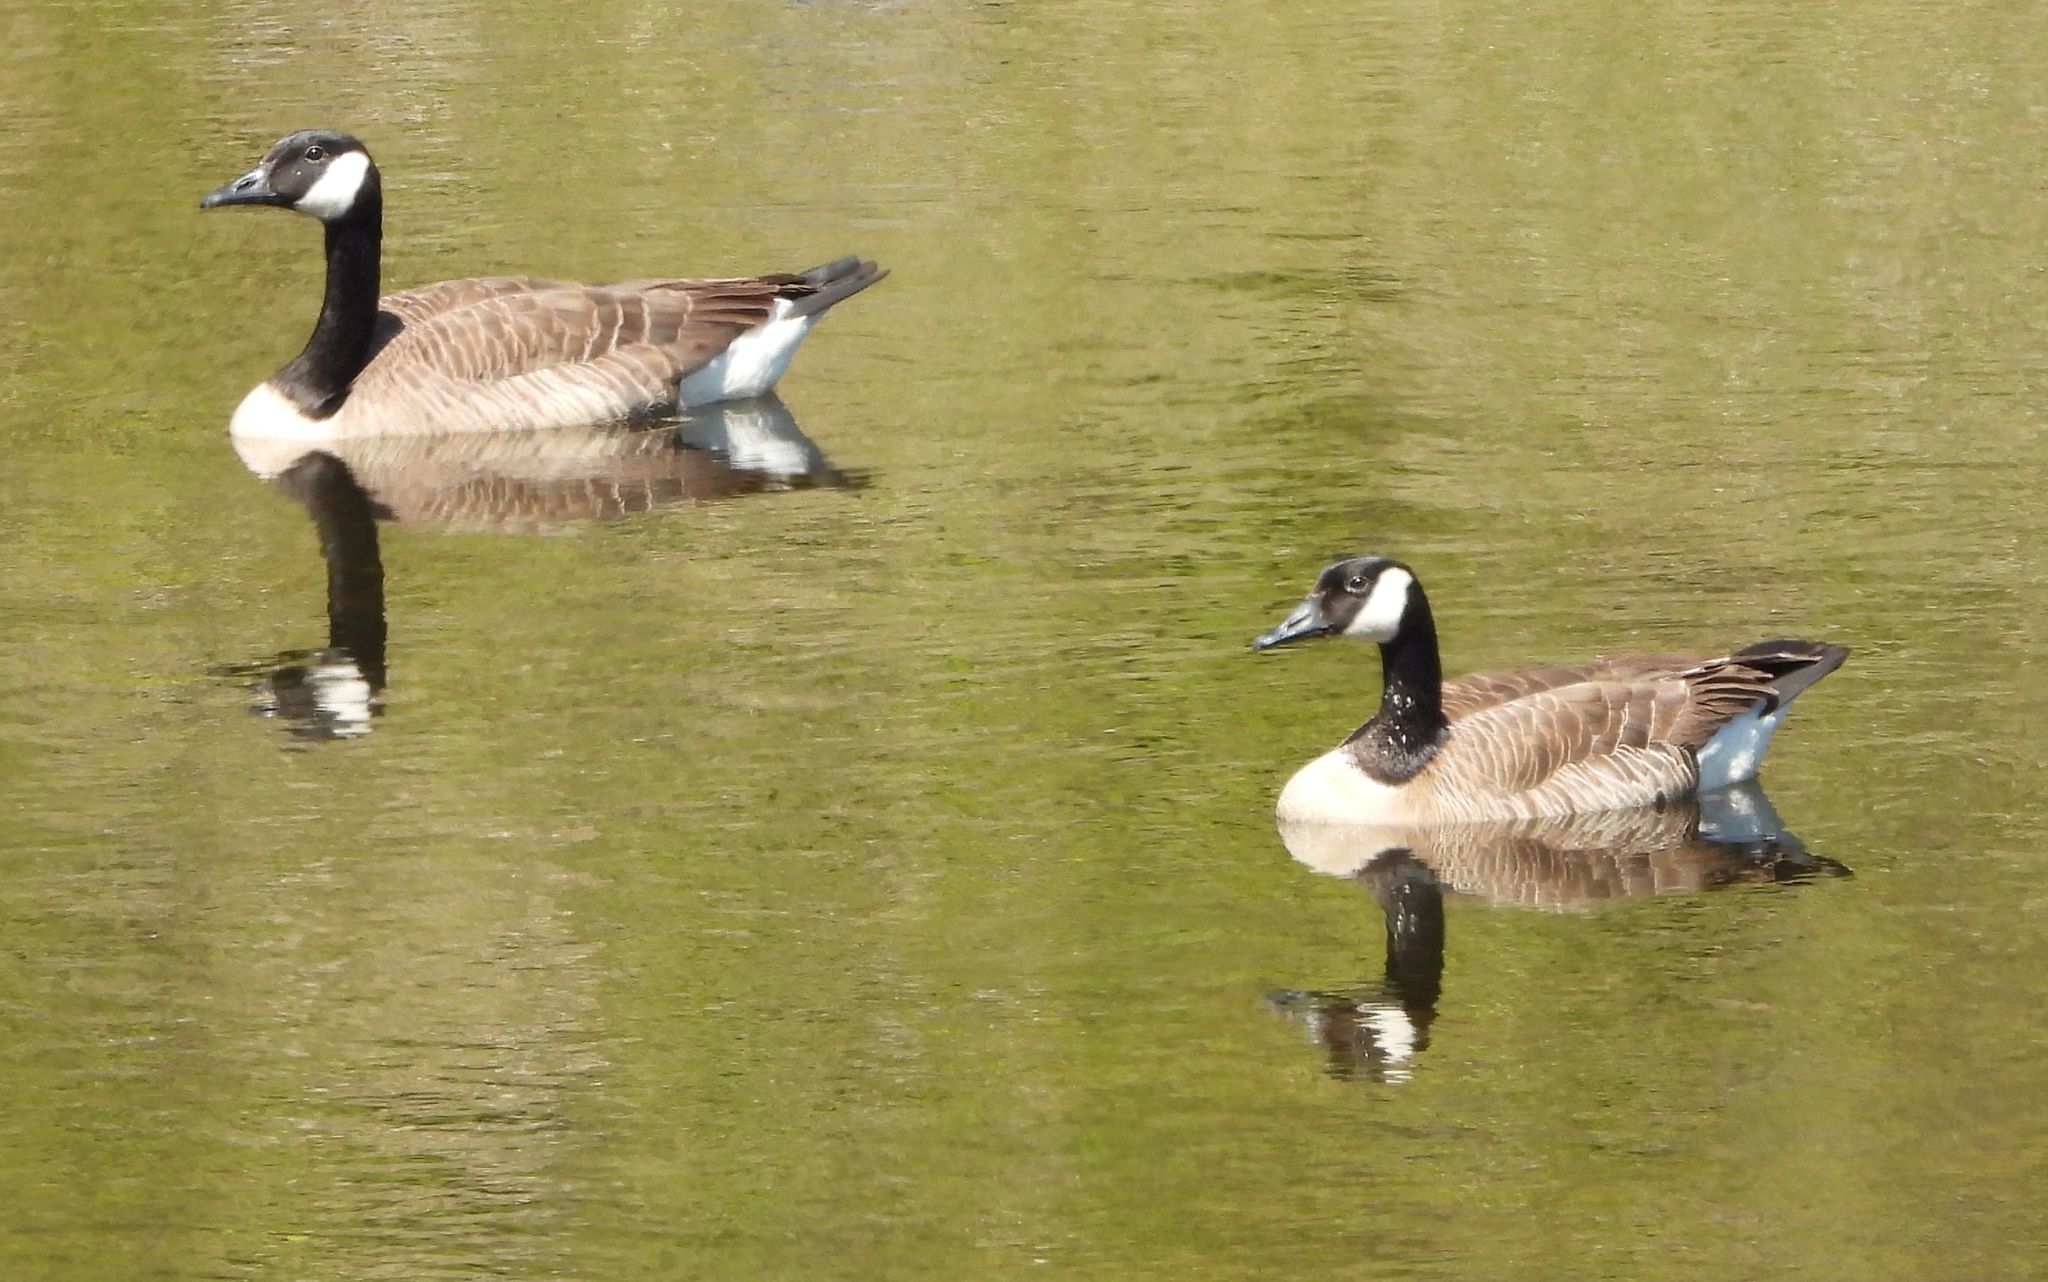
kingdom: Animalia
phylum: Chordata
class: Aves
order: Anseriformes
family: Anatidae
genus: Branta
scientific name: Branta canadensis
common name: Canada goose
